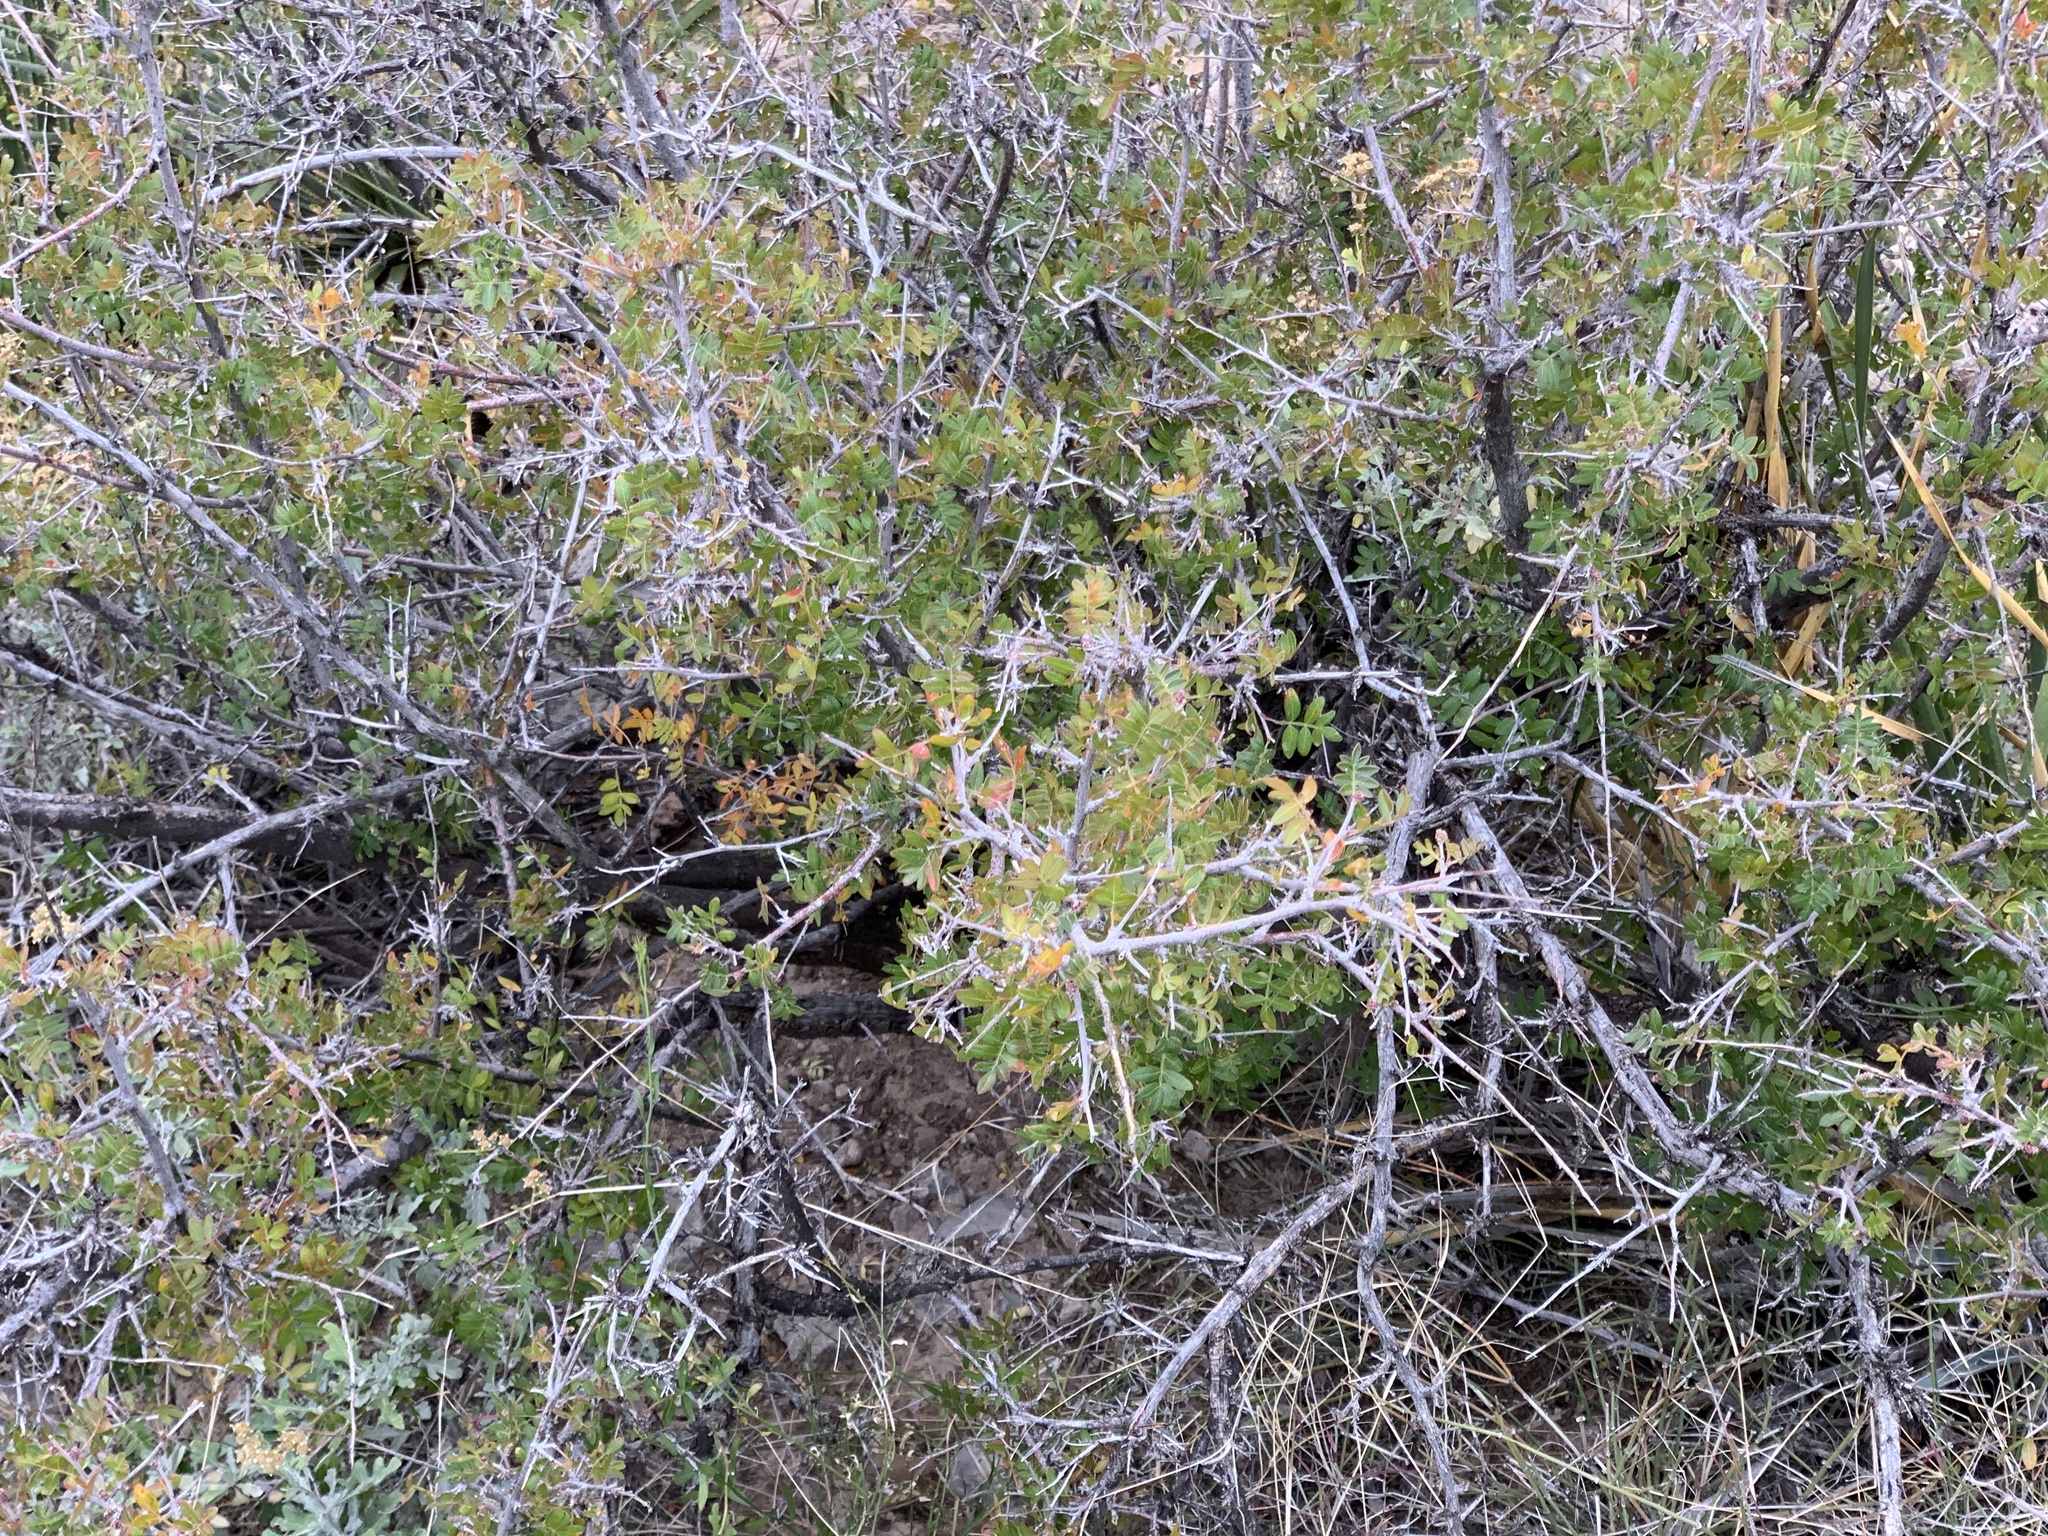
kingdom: Plantae
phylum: Tracheophyta
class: Magnoliopsida
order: Sapindales
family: Anacardiaceae
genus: Rhus
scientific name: Rhus microphylla
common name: Desert sumac
